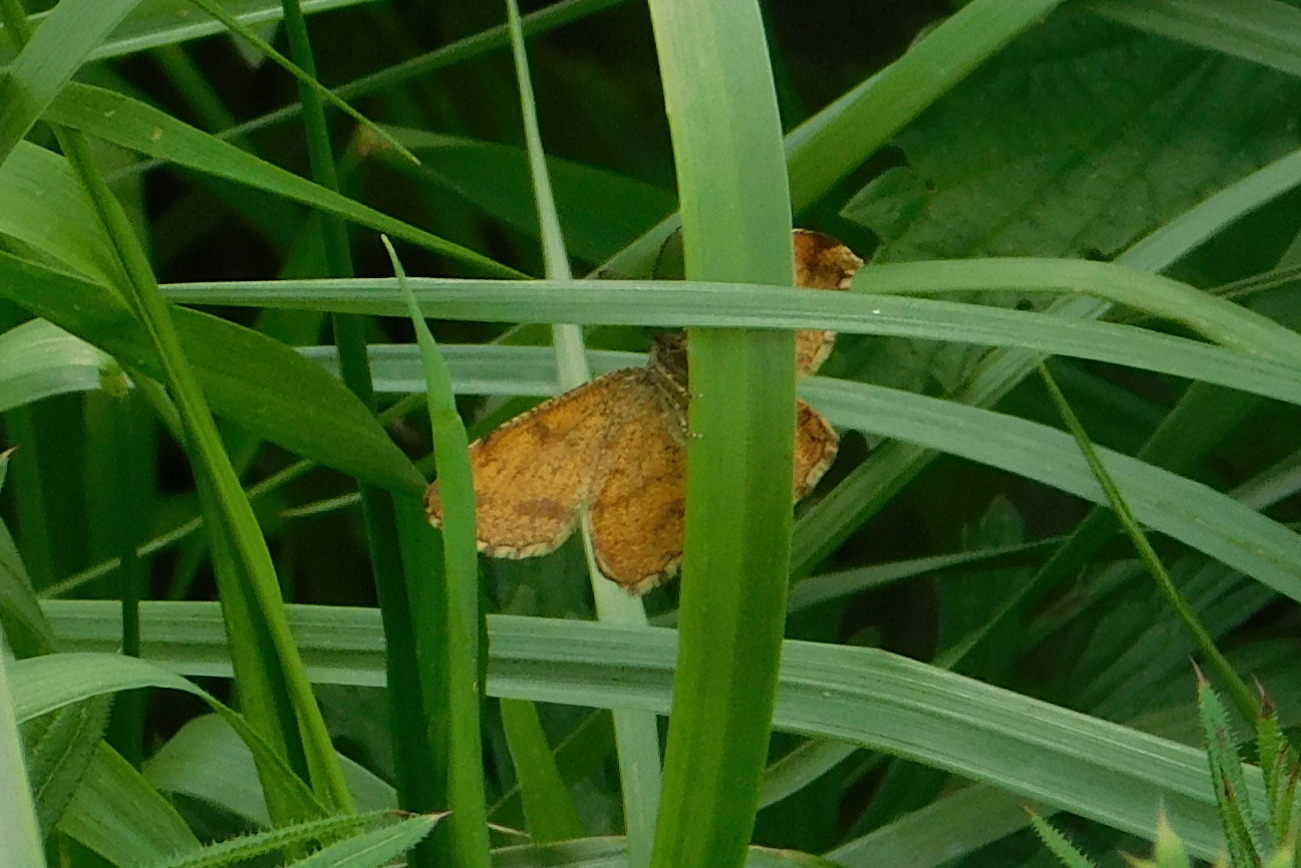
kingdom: Animalia
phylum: Arthropoda
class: Insecta
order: Lepidoptera
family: Geometridae
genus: Ematurga
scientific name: Ematurga atomaria
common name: Common heath
